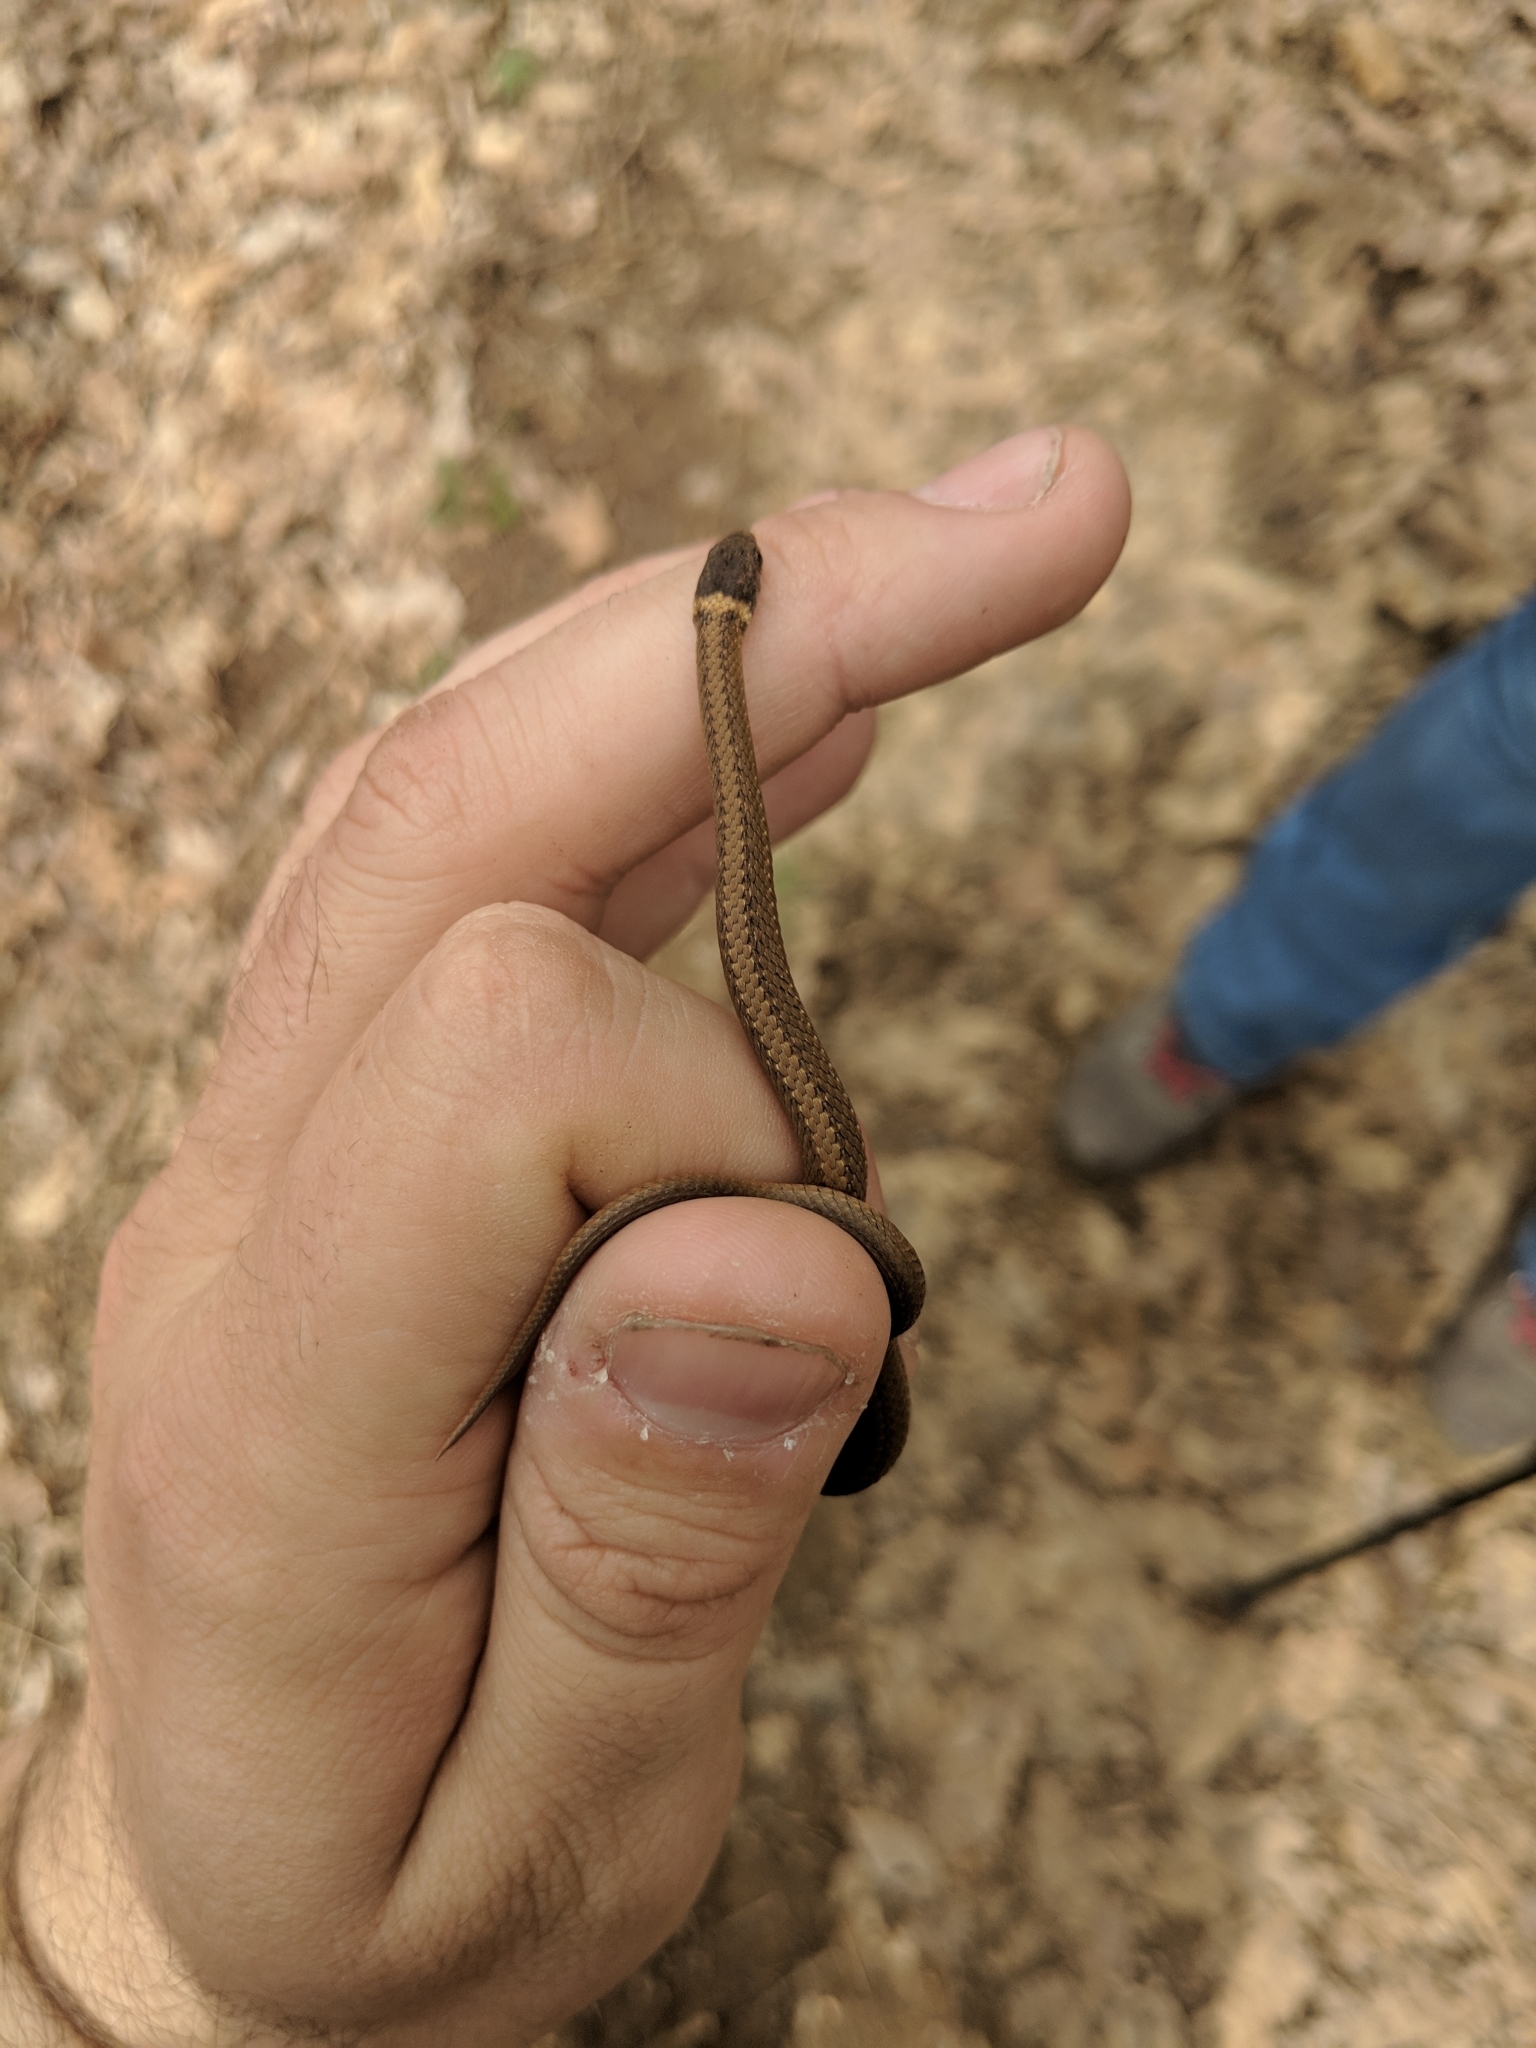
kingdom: Animalia
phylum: Chordata
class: Squamata
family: Colubridae
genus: Storeria
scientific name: Storeria occipitomaculata
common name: Redbelly snake
